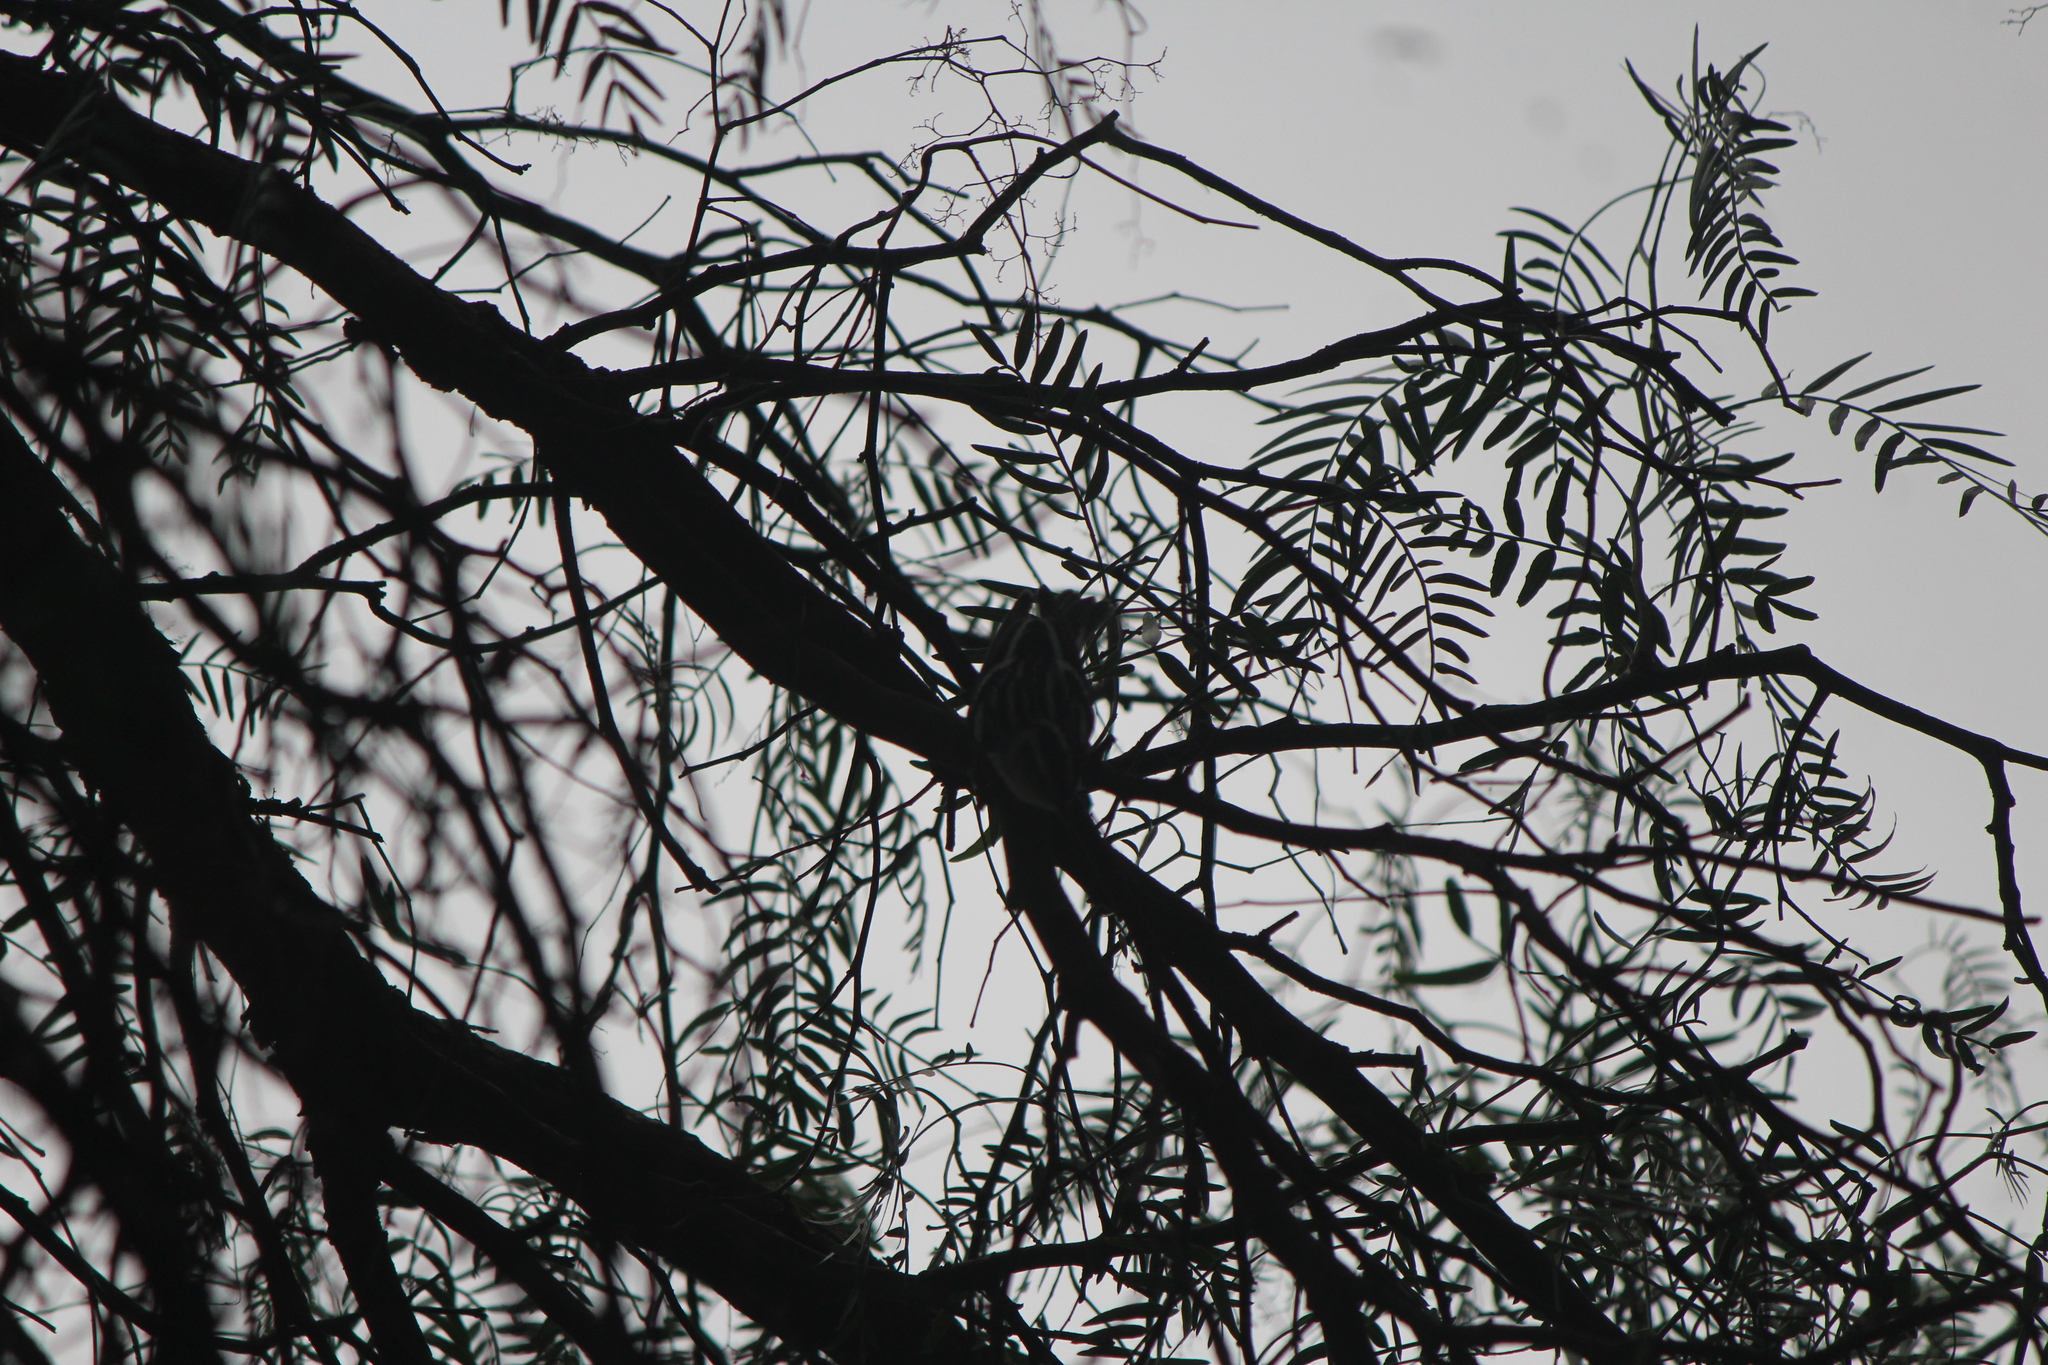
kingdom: Animalia
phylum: Chordata
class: Aves
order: Passeriformes
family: Parulidae
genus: Mniotilta
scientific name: Mniotilta varia
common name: Black-and-white warbler
